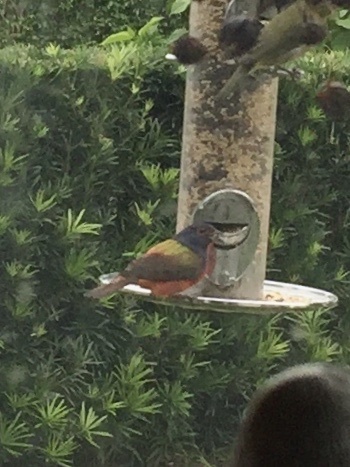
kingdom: Animalia
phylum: Chordata
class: Aves
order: Passeriformes
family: Cardinalidae
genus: Passerina
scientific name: Passerina ciris
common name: Painted bunting
